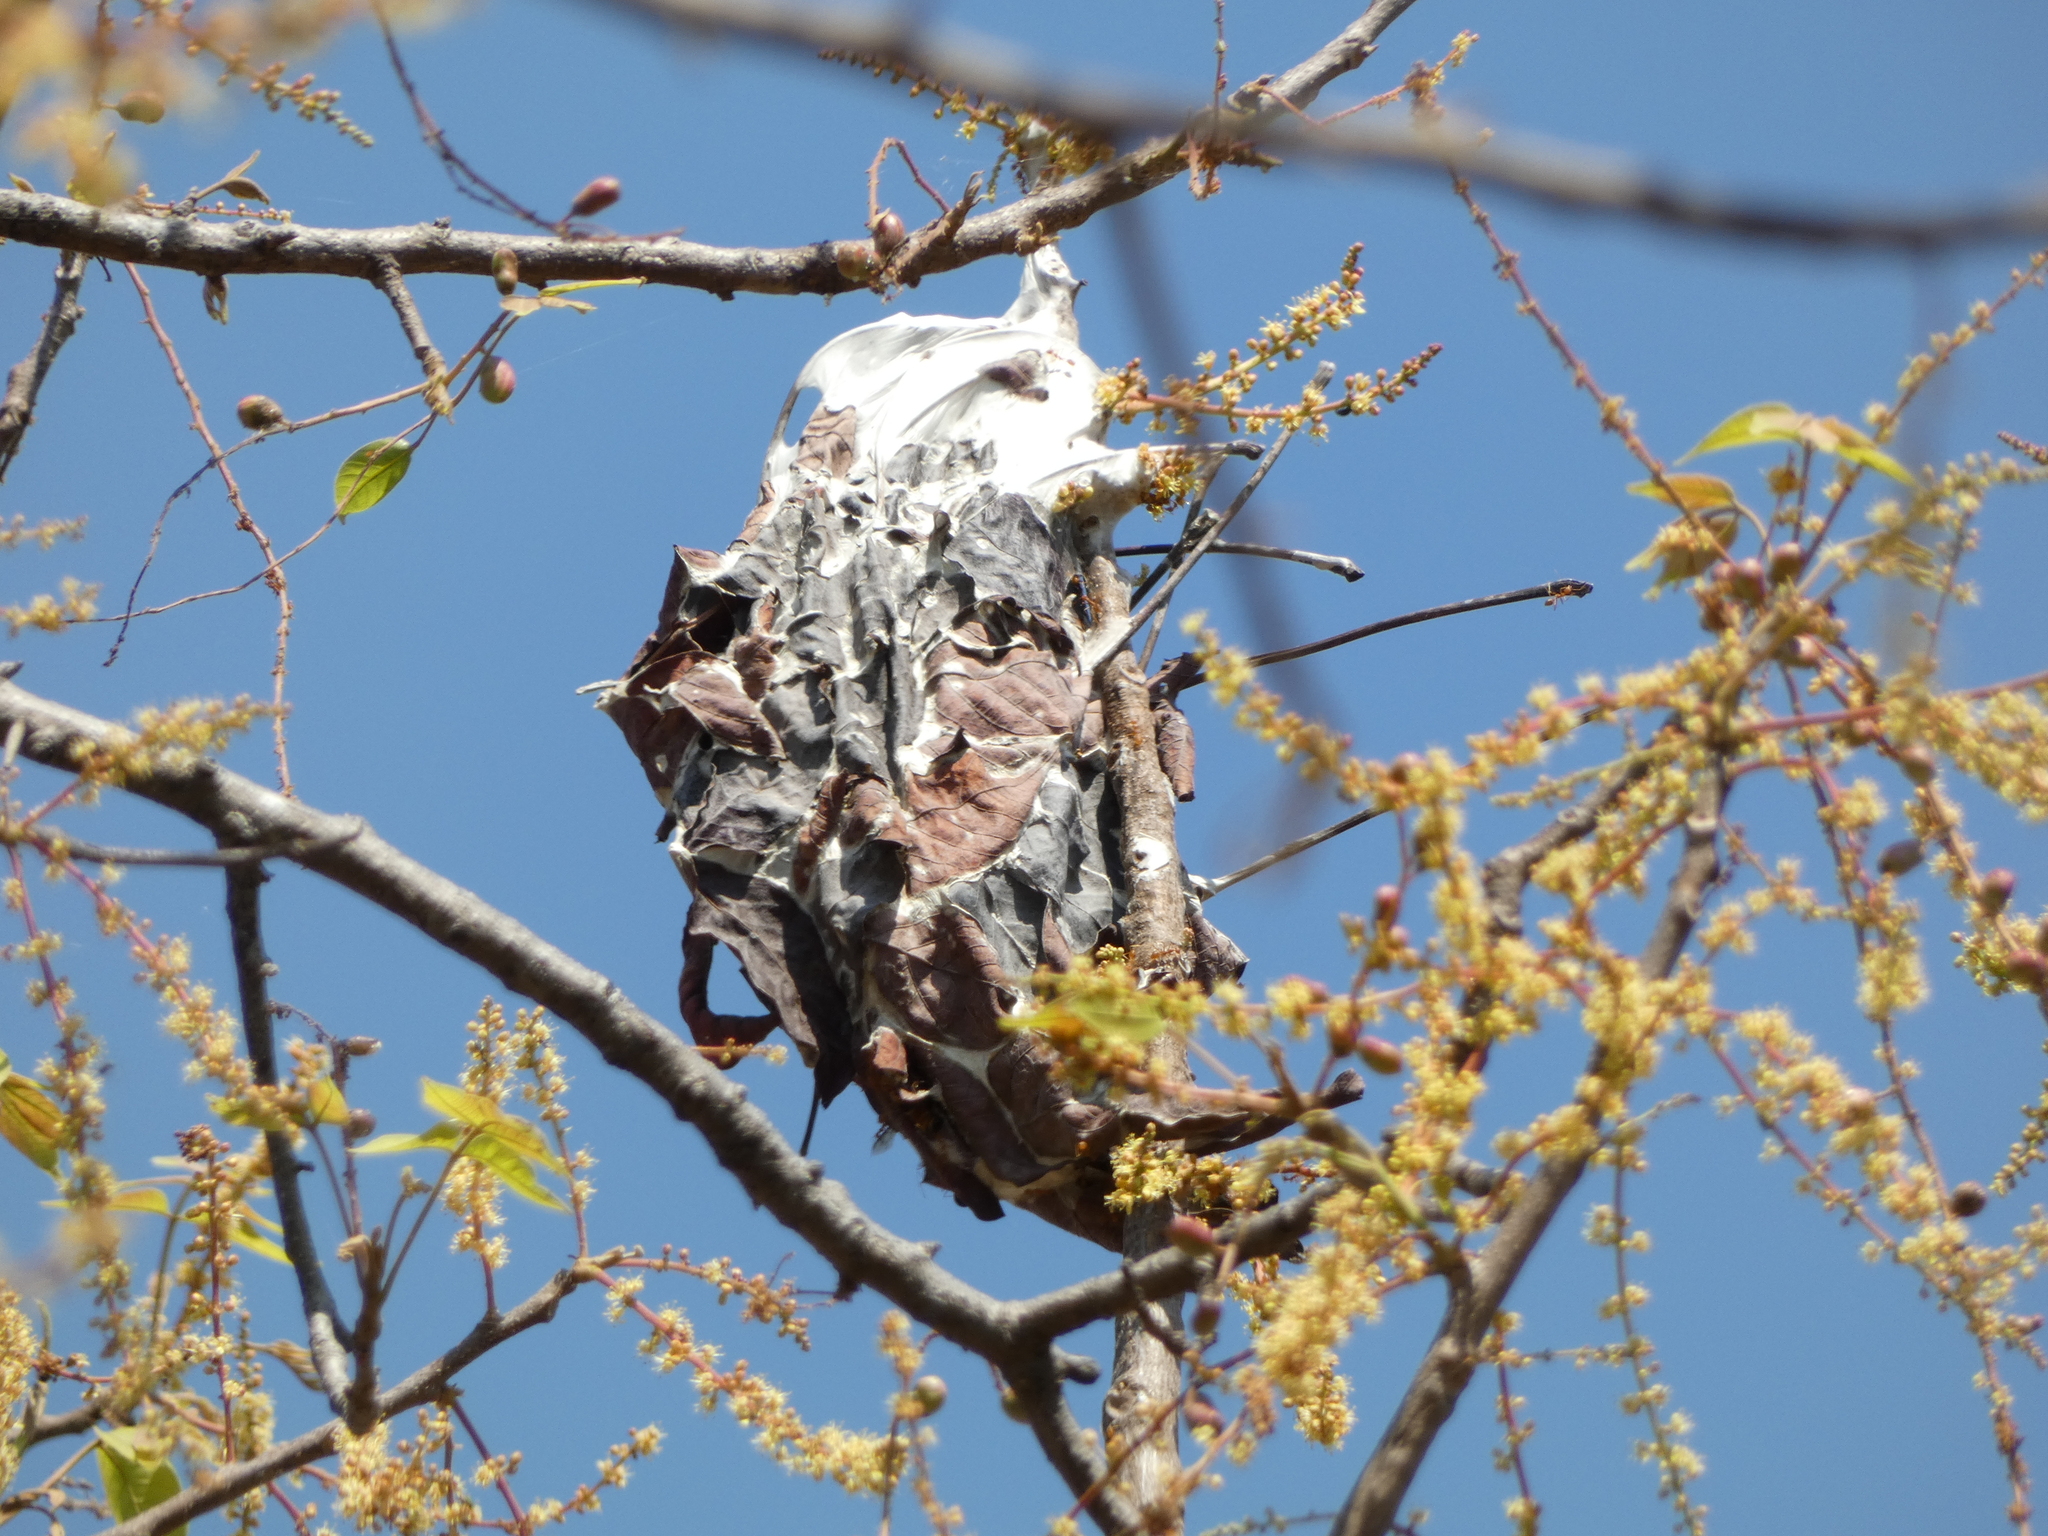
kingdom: Animalia
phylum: Arthropoda
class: Insecta
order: Hymenoptera
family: Formicidae
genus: Oecophylla
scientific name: Oecophylla smaragdina
